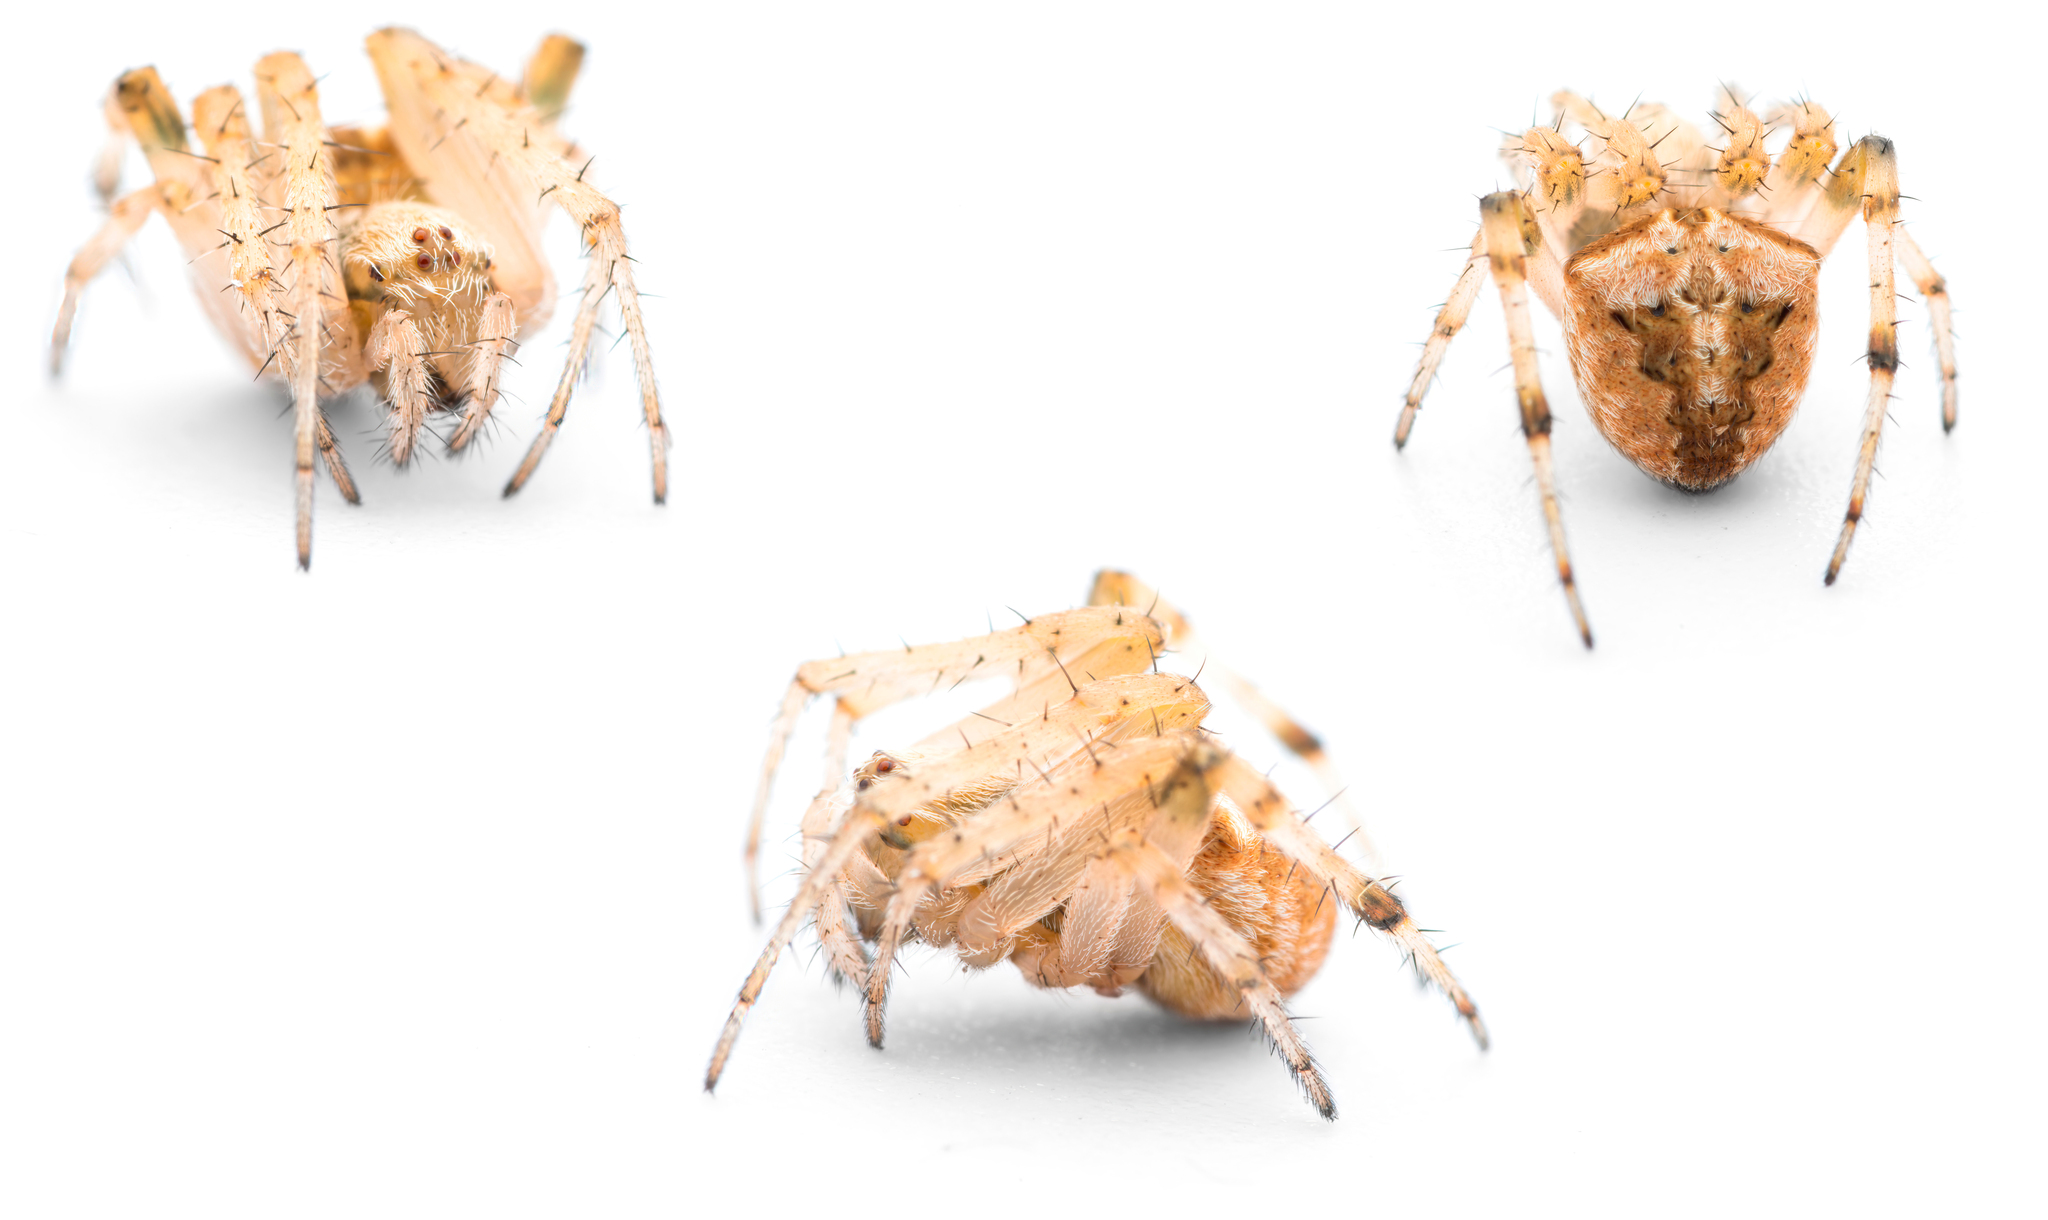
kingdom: Animalia
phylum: Arthropoda
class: Arachnida
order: Araneae
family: Araneidae
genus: Neoscona
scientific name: Neoscona subfusca
